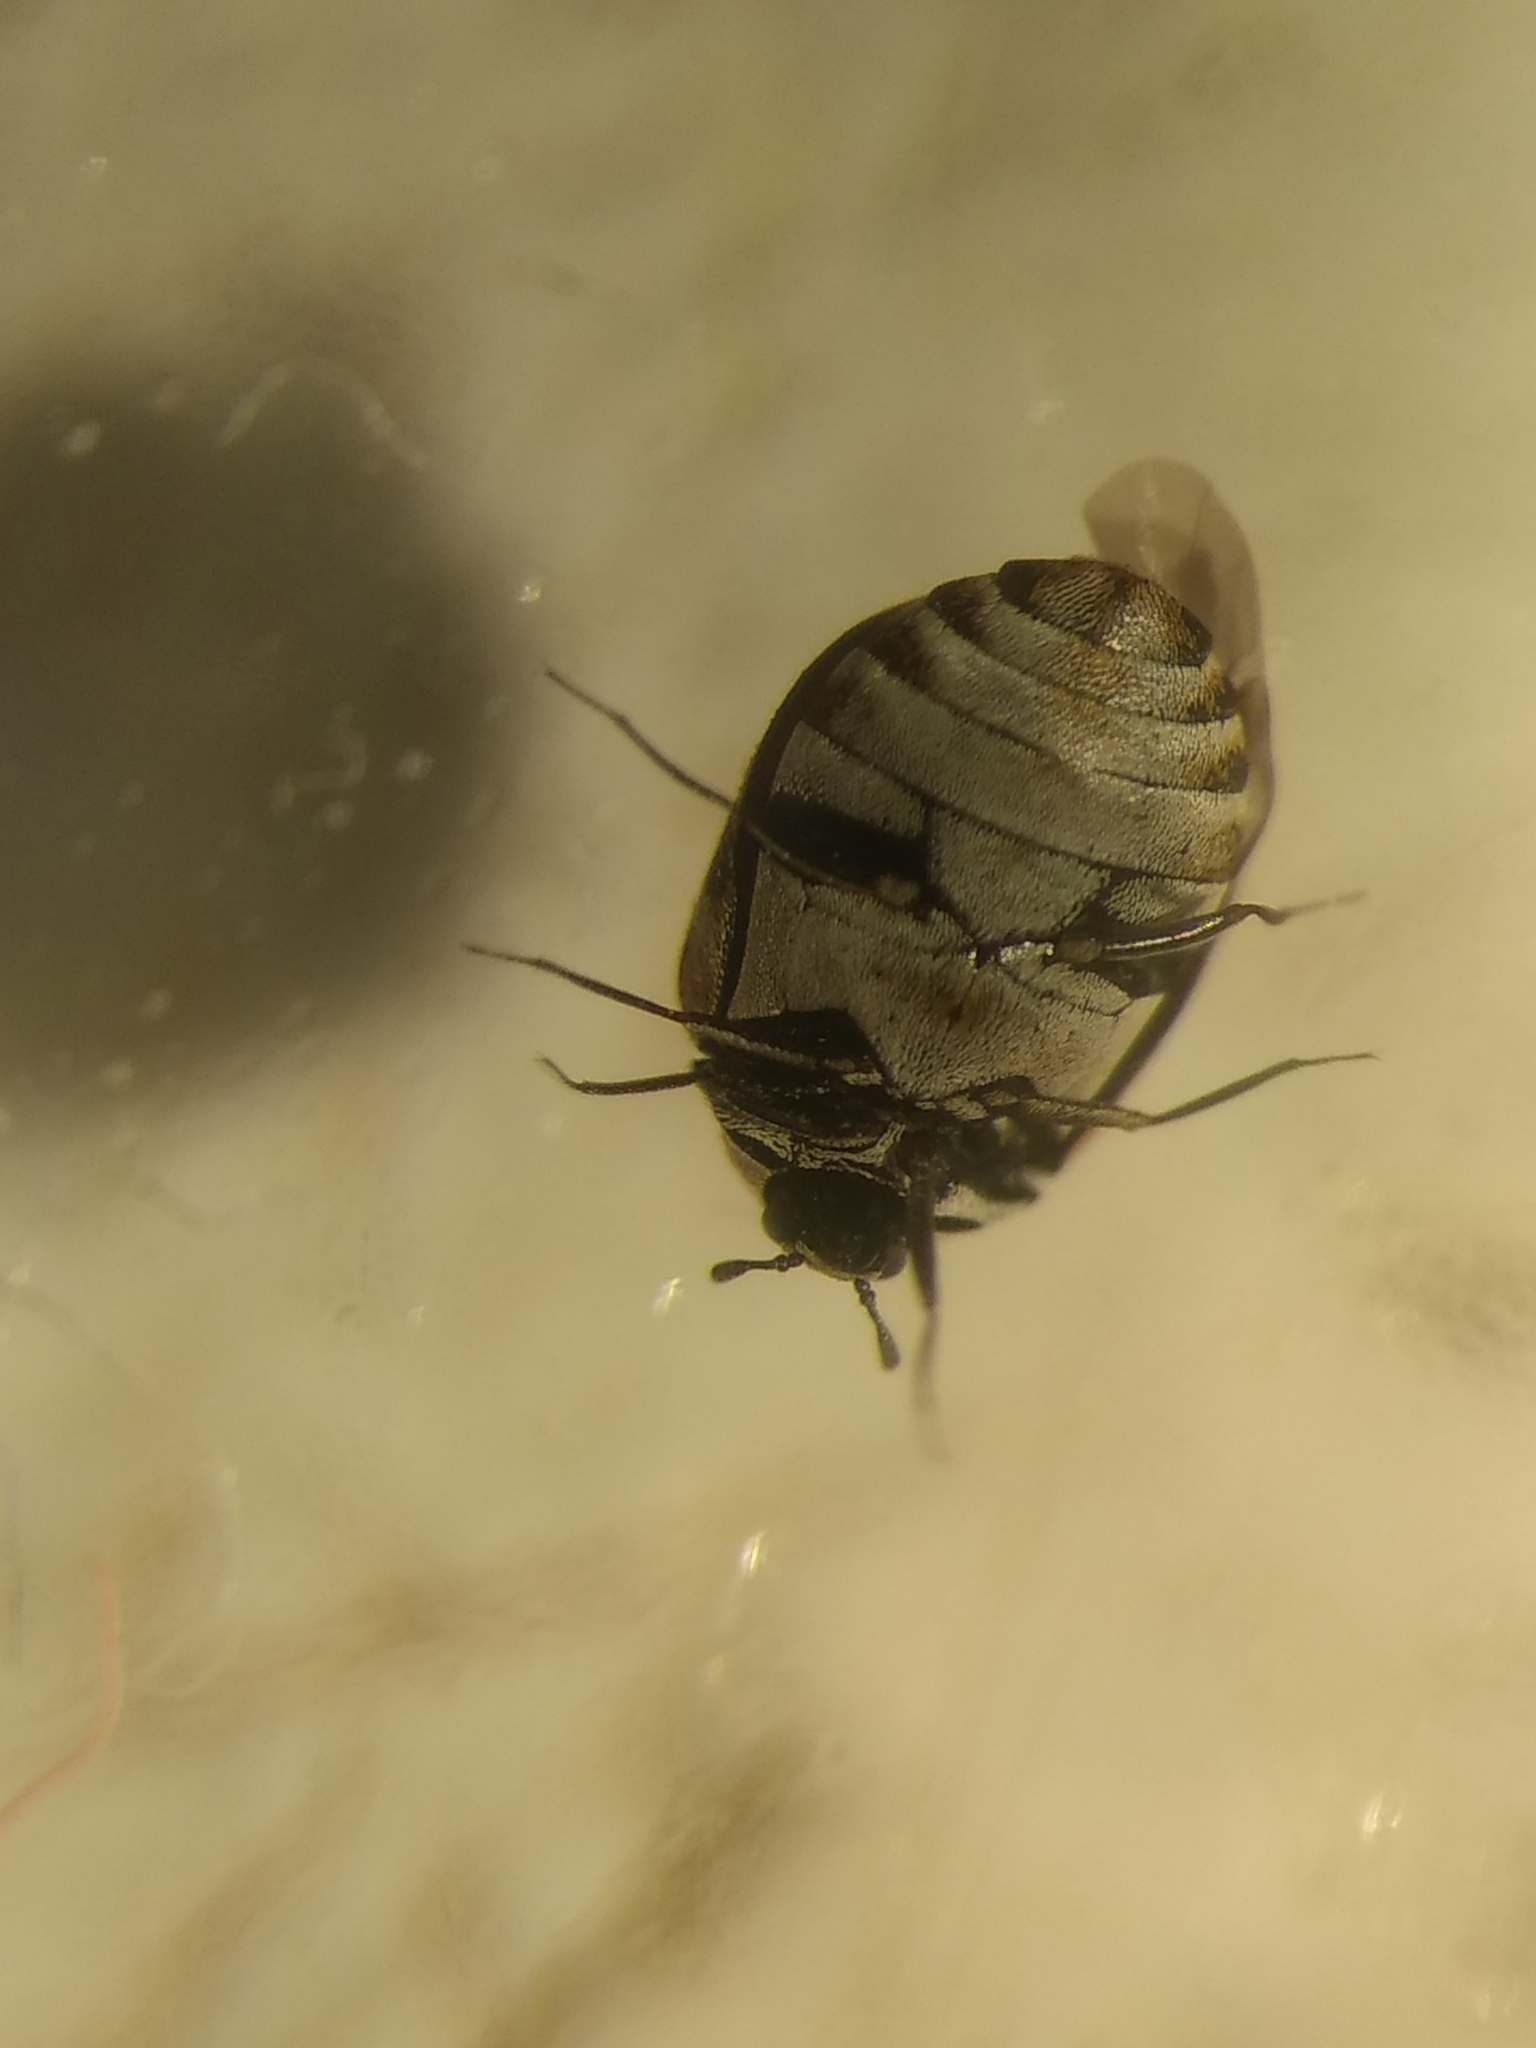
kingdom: Animalia
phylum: Arthropoda
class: Insecta
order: Coleoptera
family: Dermestidae
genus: Anthrenus
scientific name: Anthrenus verbasci
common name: Varied carpet beetle
